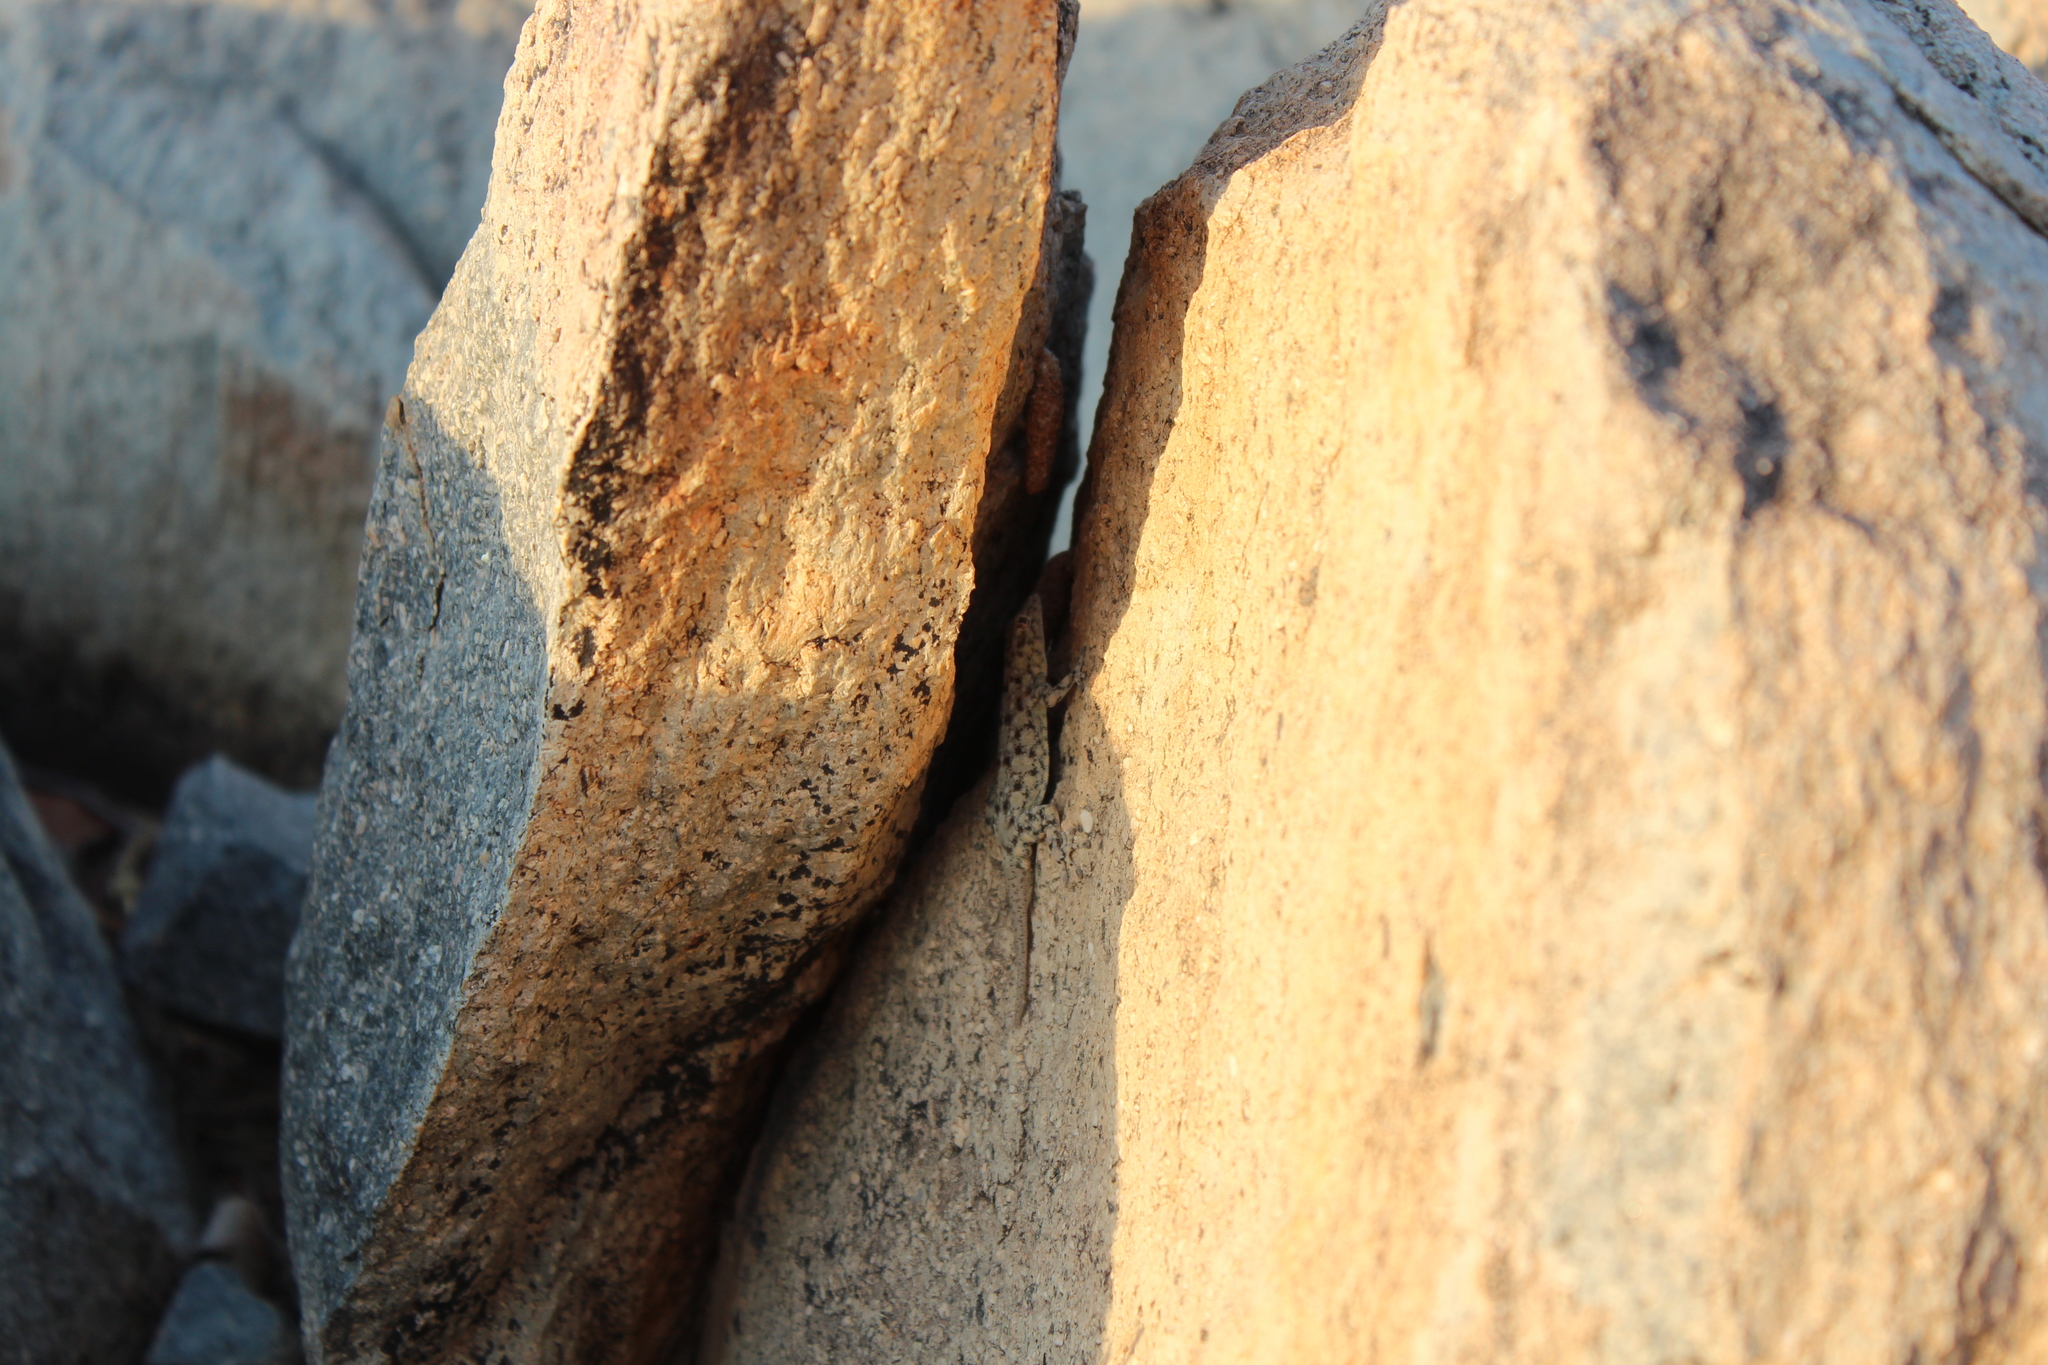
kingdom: Animalia
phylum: Chordata
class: Squamata
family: Gekkonidae
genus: Rhoptropus
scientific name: Rhoptropus barnardi
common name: Barnard’s namib day gecko
